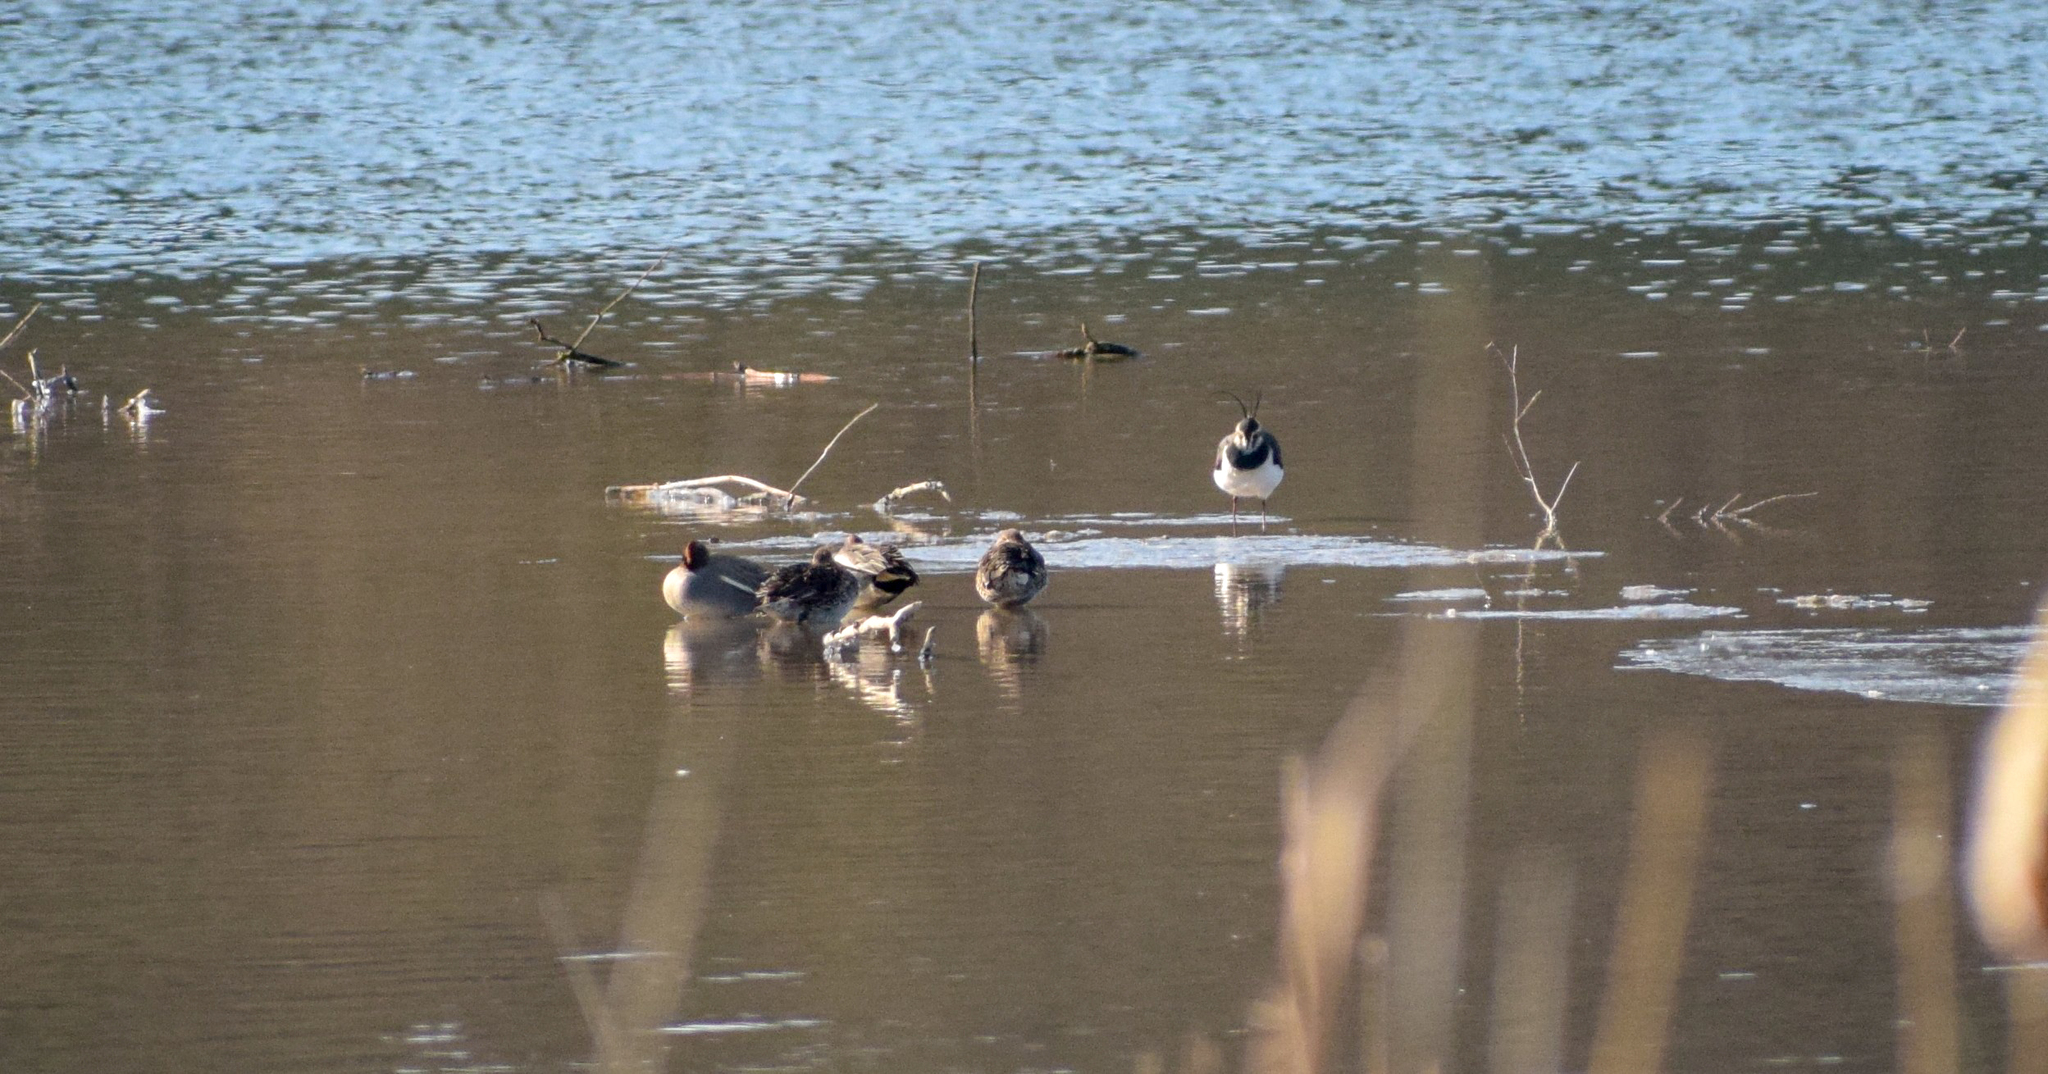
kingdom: Animalia
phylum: Chordata
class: Aves
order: Charadriiformes
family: Charadriidae
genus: Vanellus
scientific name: Vanellus vanellus
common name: Northern lapwing
